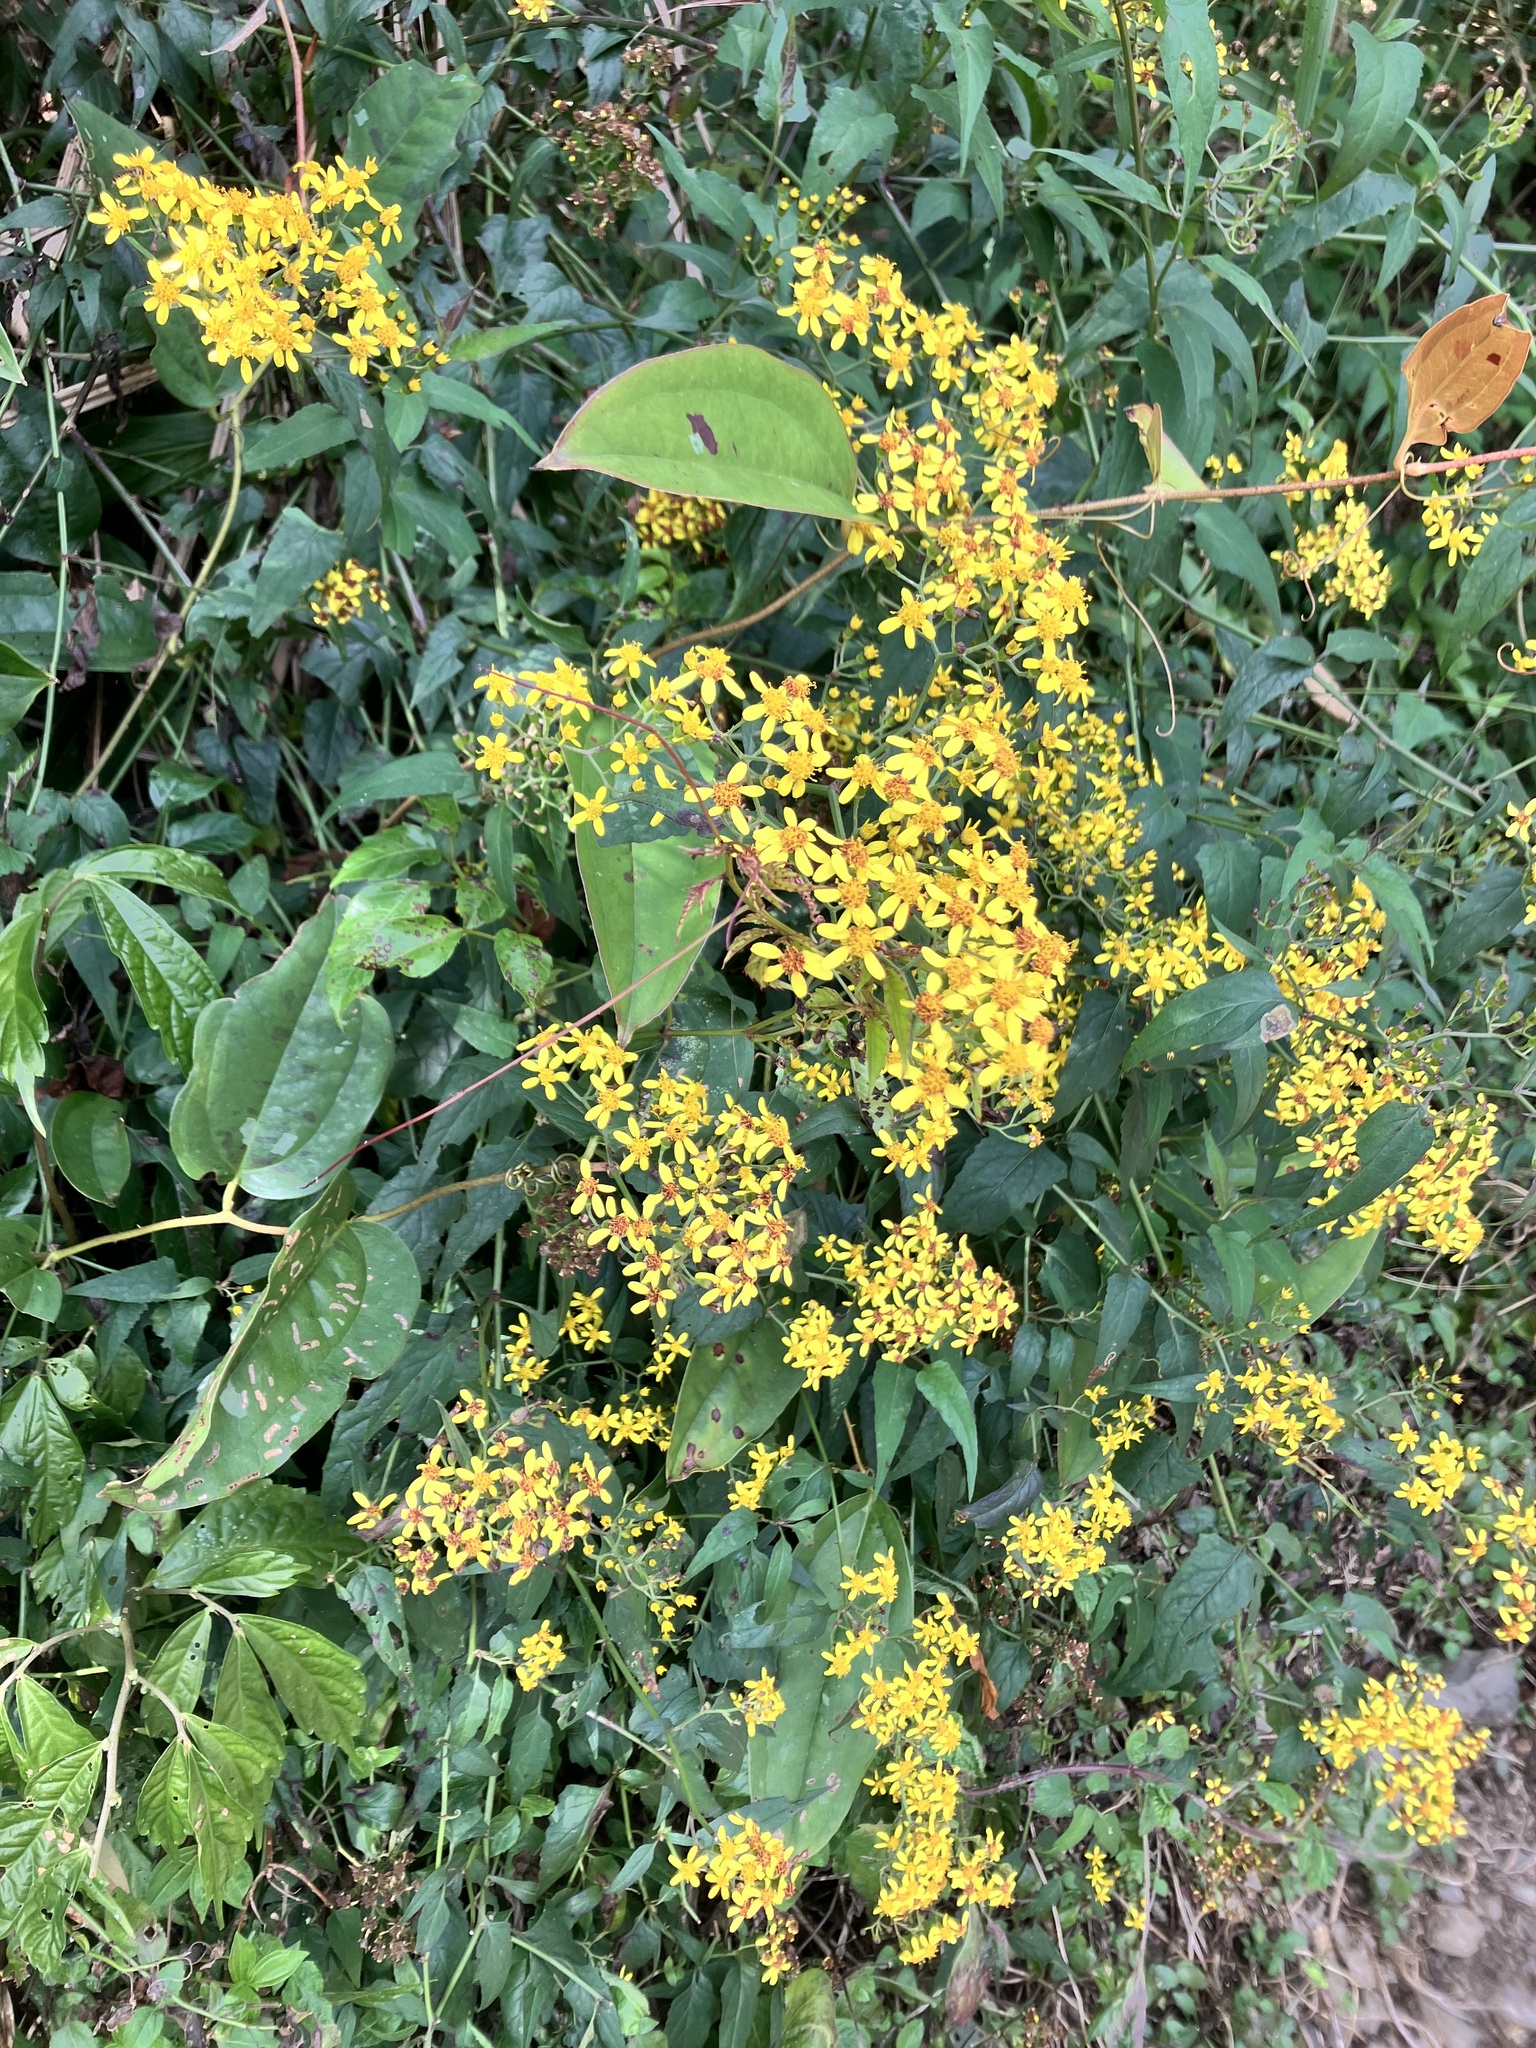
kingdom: Plantae
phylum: Tracheophyta
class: Magnoliopsida
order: Asterales
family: Asteraceae
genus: Senecio
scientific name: Senecio scandens
